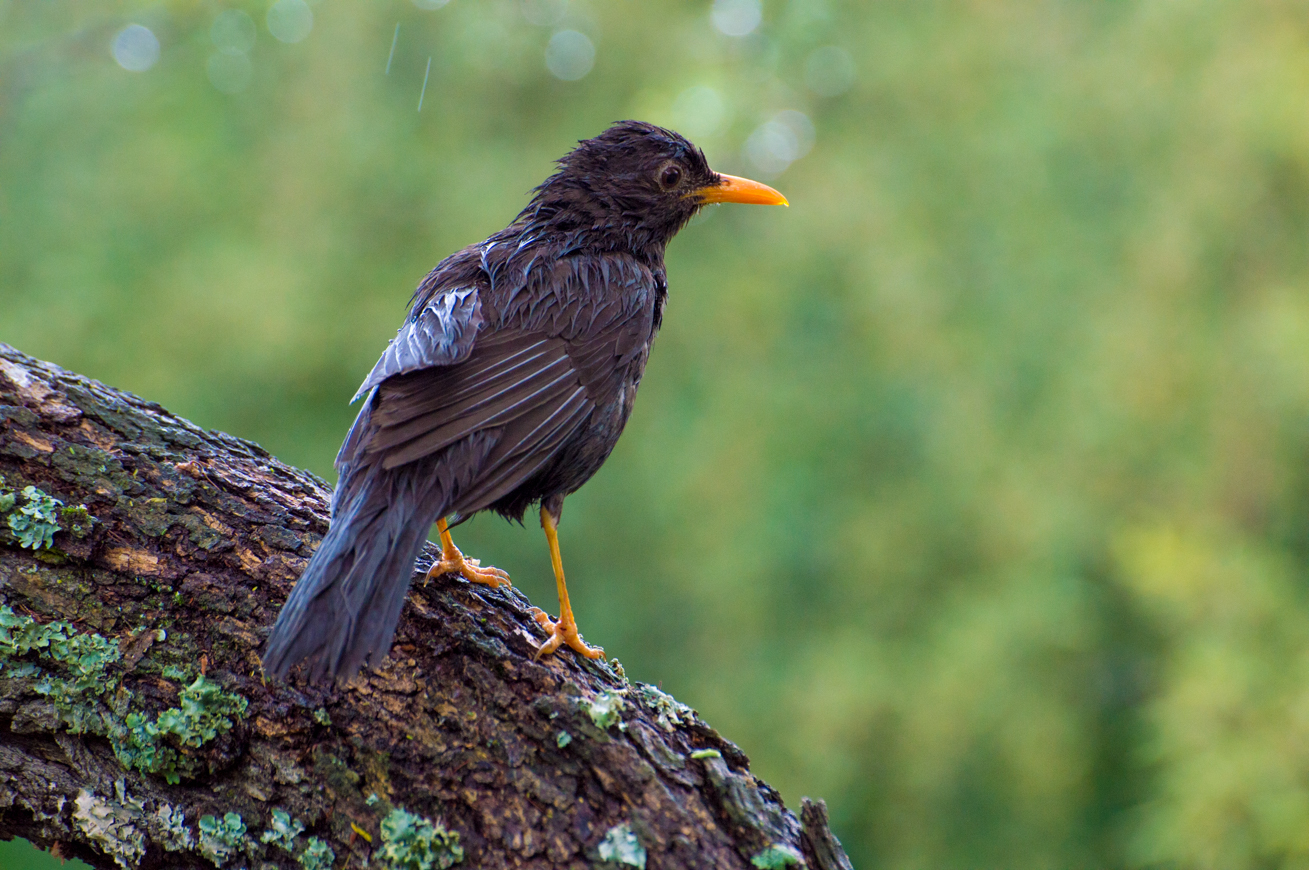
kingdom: Animalia
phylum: Chordata
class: Aves
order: Passeriformes
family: Turdidae
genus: Turdus
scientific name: Turdus chiguanco
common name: Chiguanco thrush
